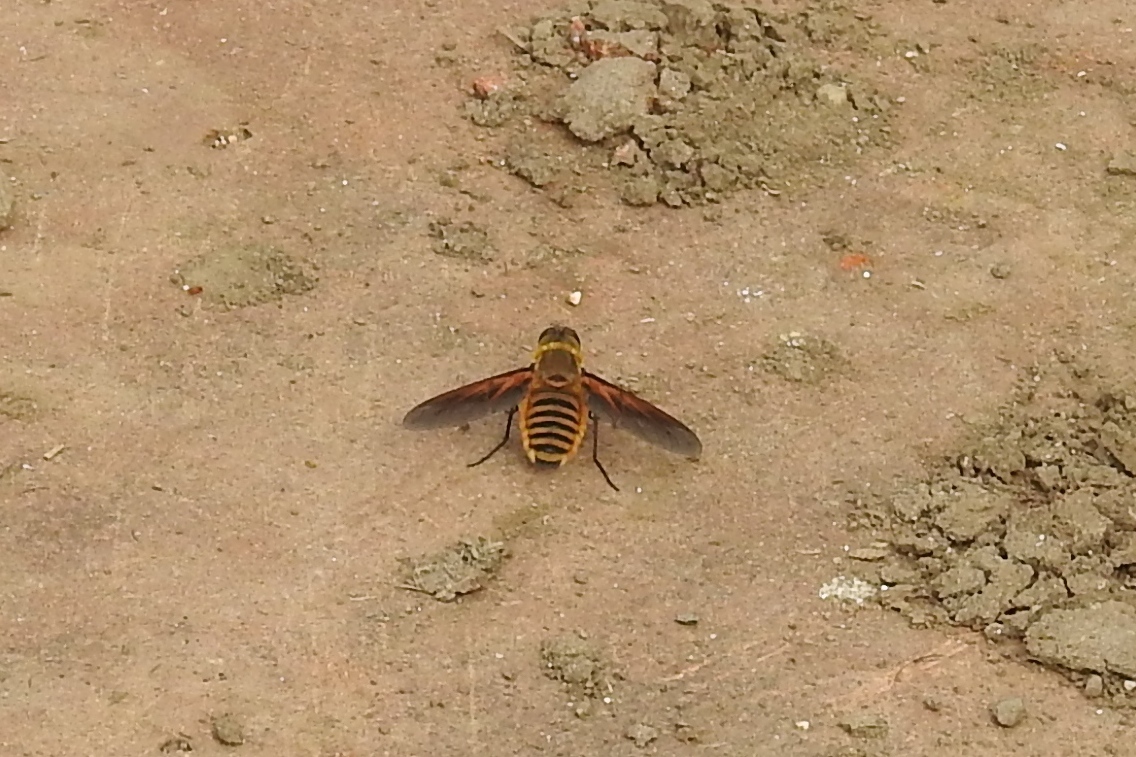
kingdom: Animalia
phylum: Arthropoda
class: Insecta
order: Diptera
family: Bombyliidae
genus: Poecilanthrax
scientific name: Poecilanthrax lucifer
